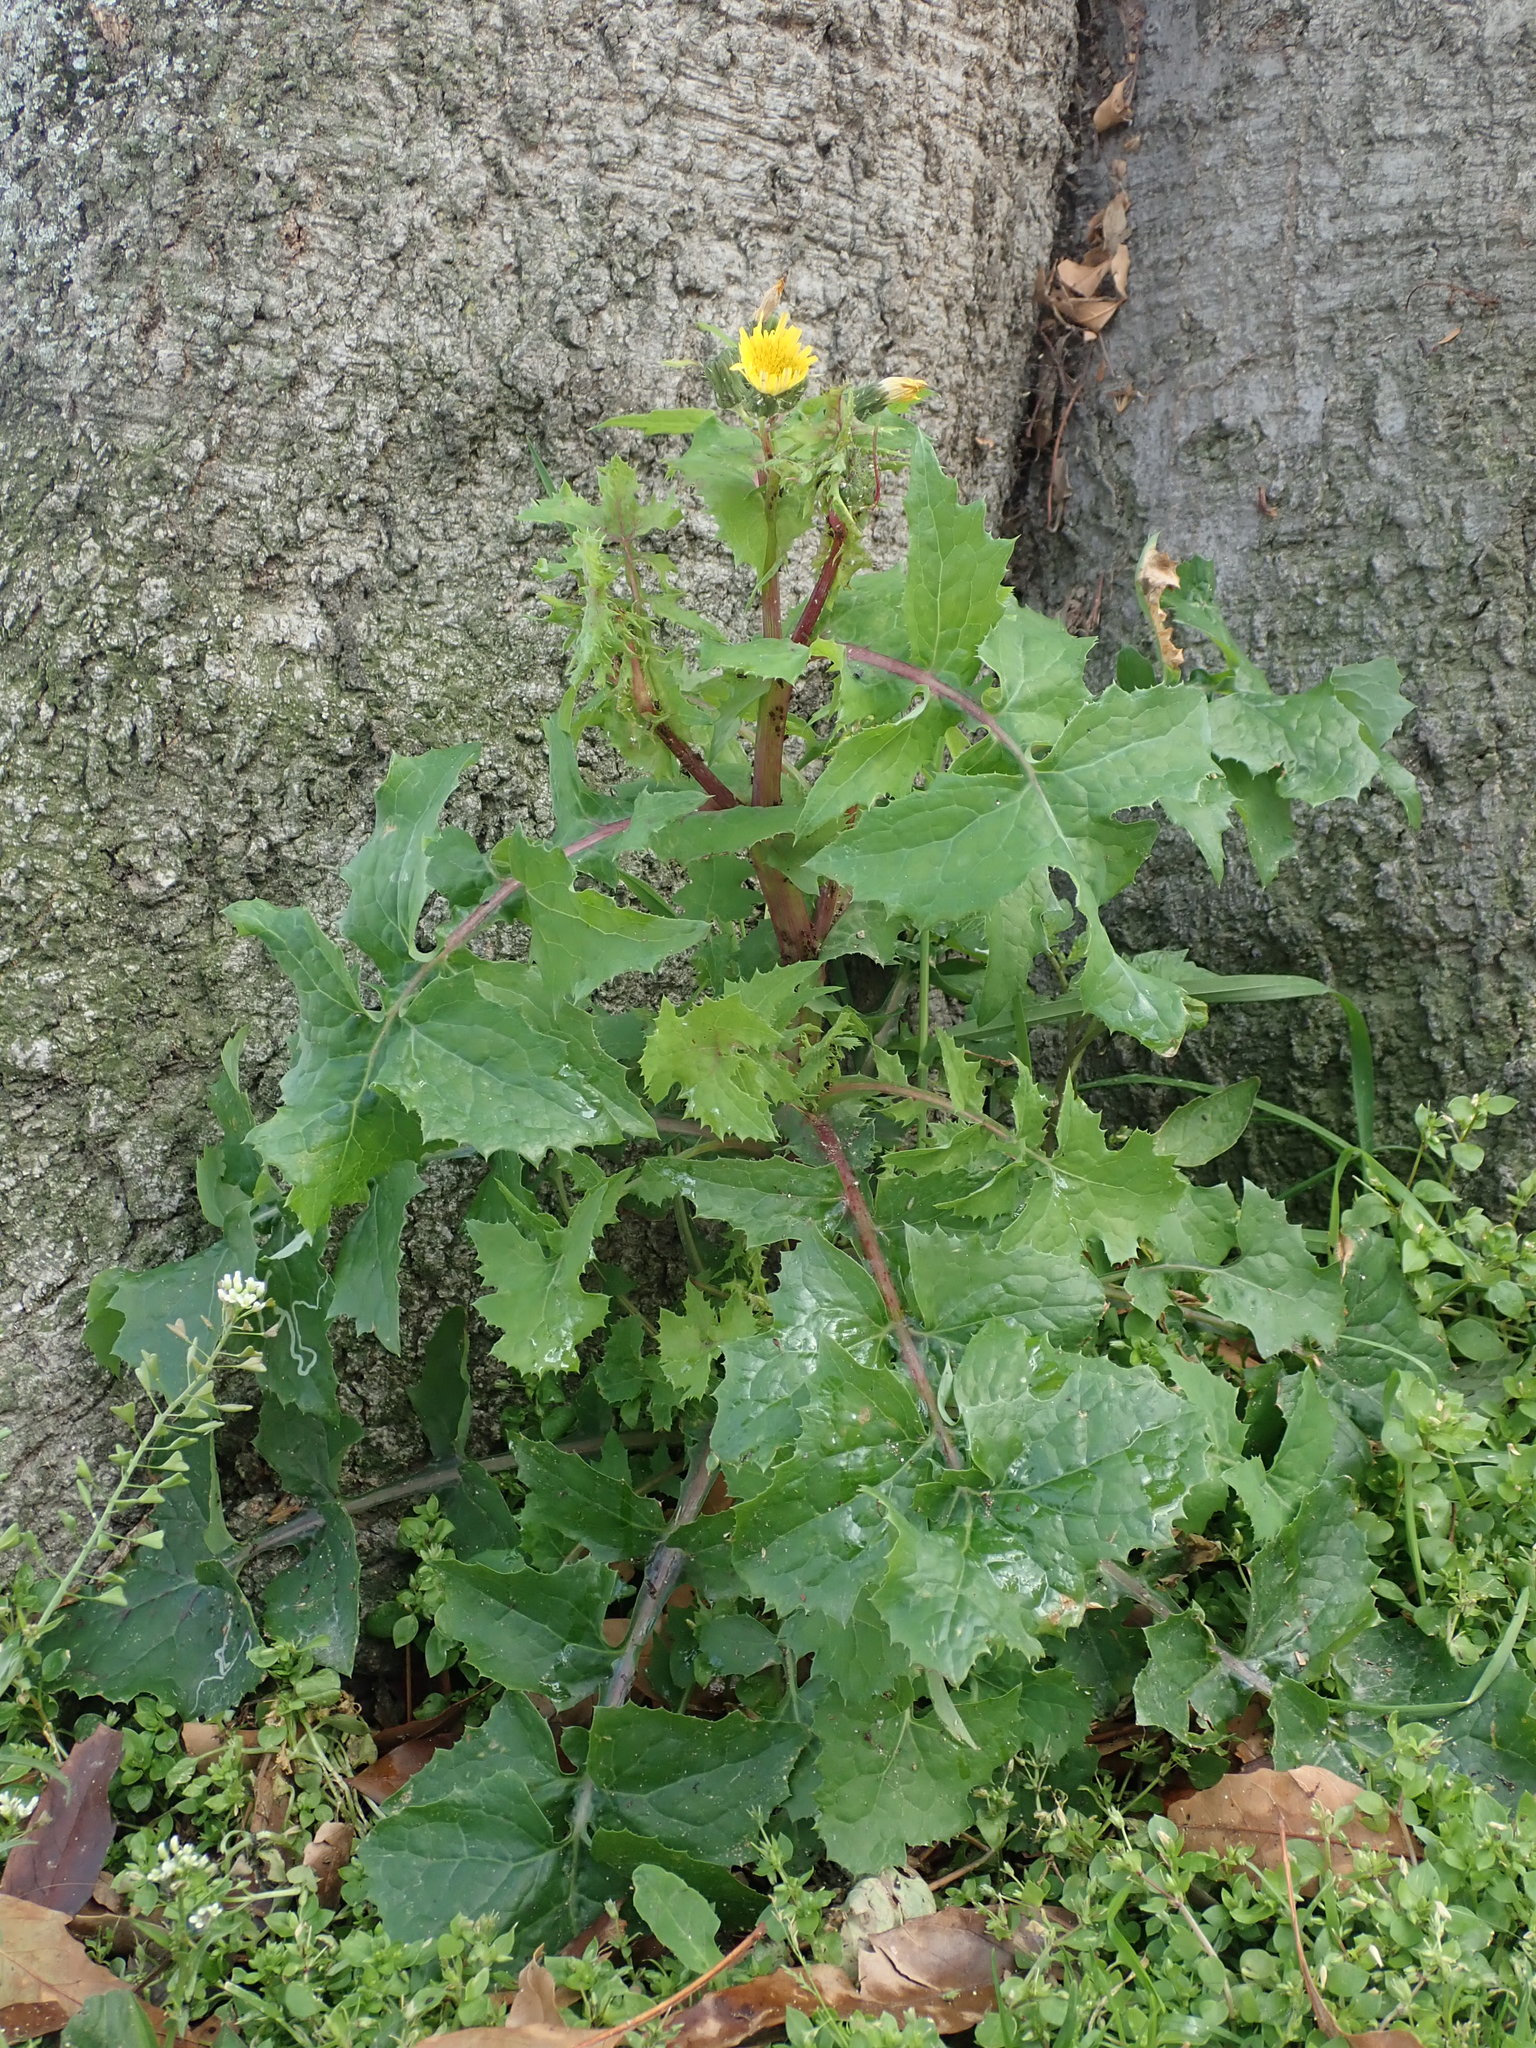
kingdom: Plantae
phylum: Tracheophyta
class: Magnoliopsida
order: Asterales
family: Asteraceae
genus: Sonchus
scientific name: Sonchus oleraceus
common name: Common sowthistle
